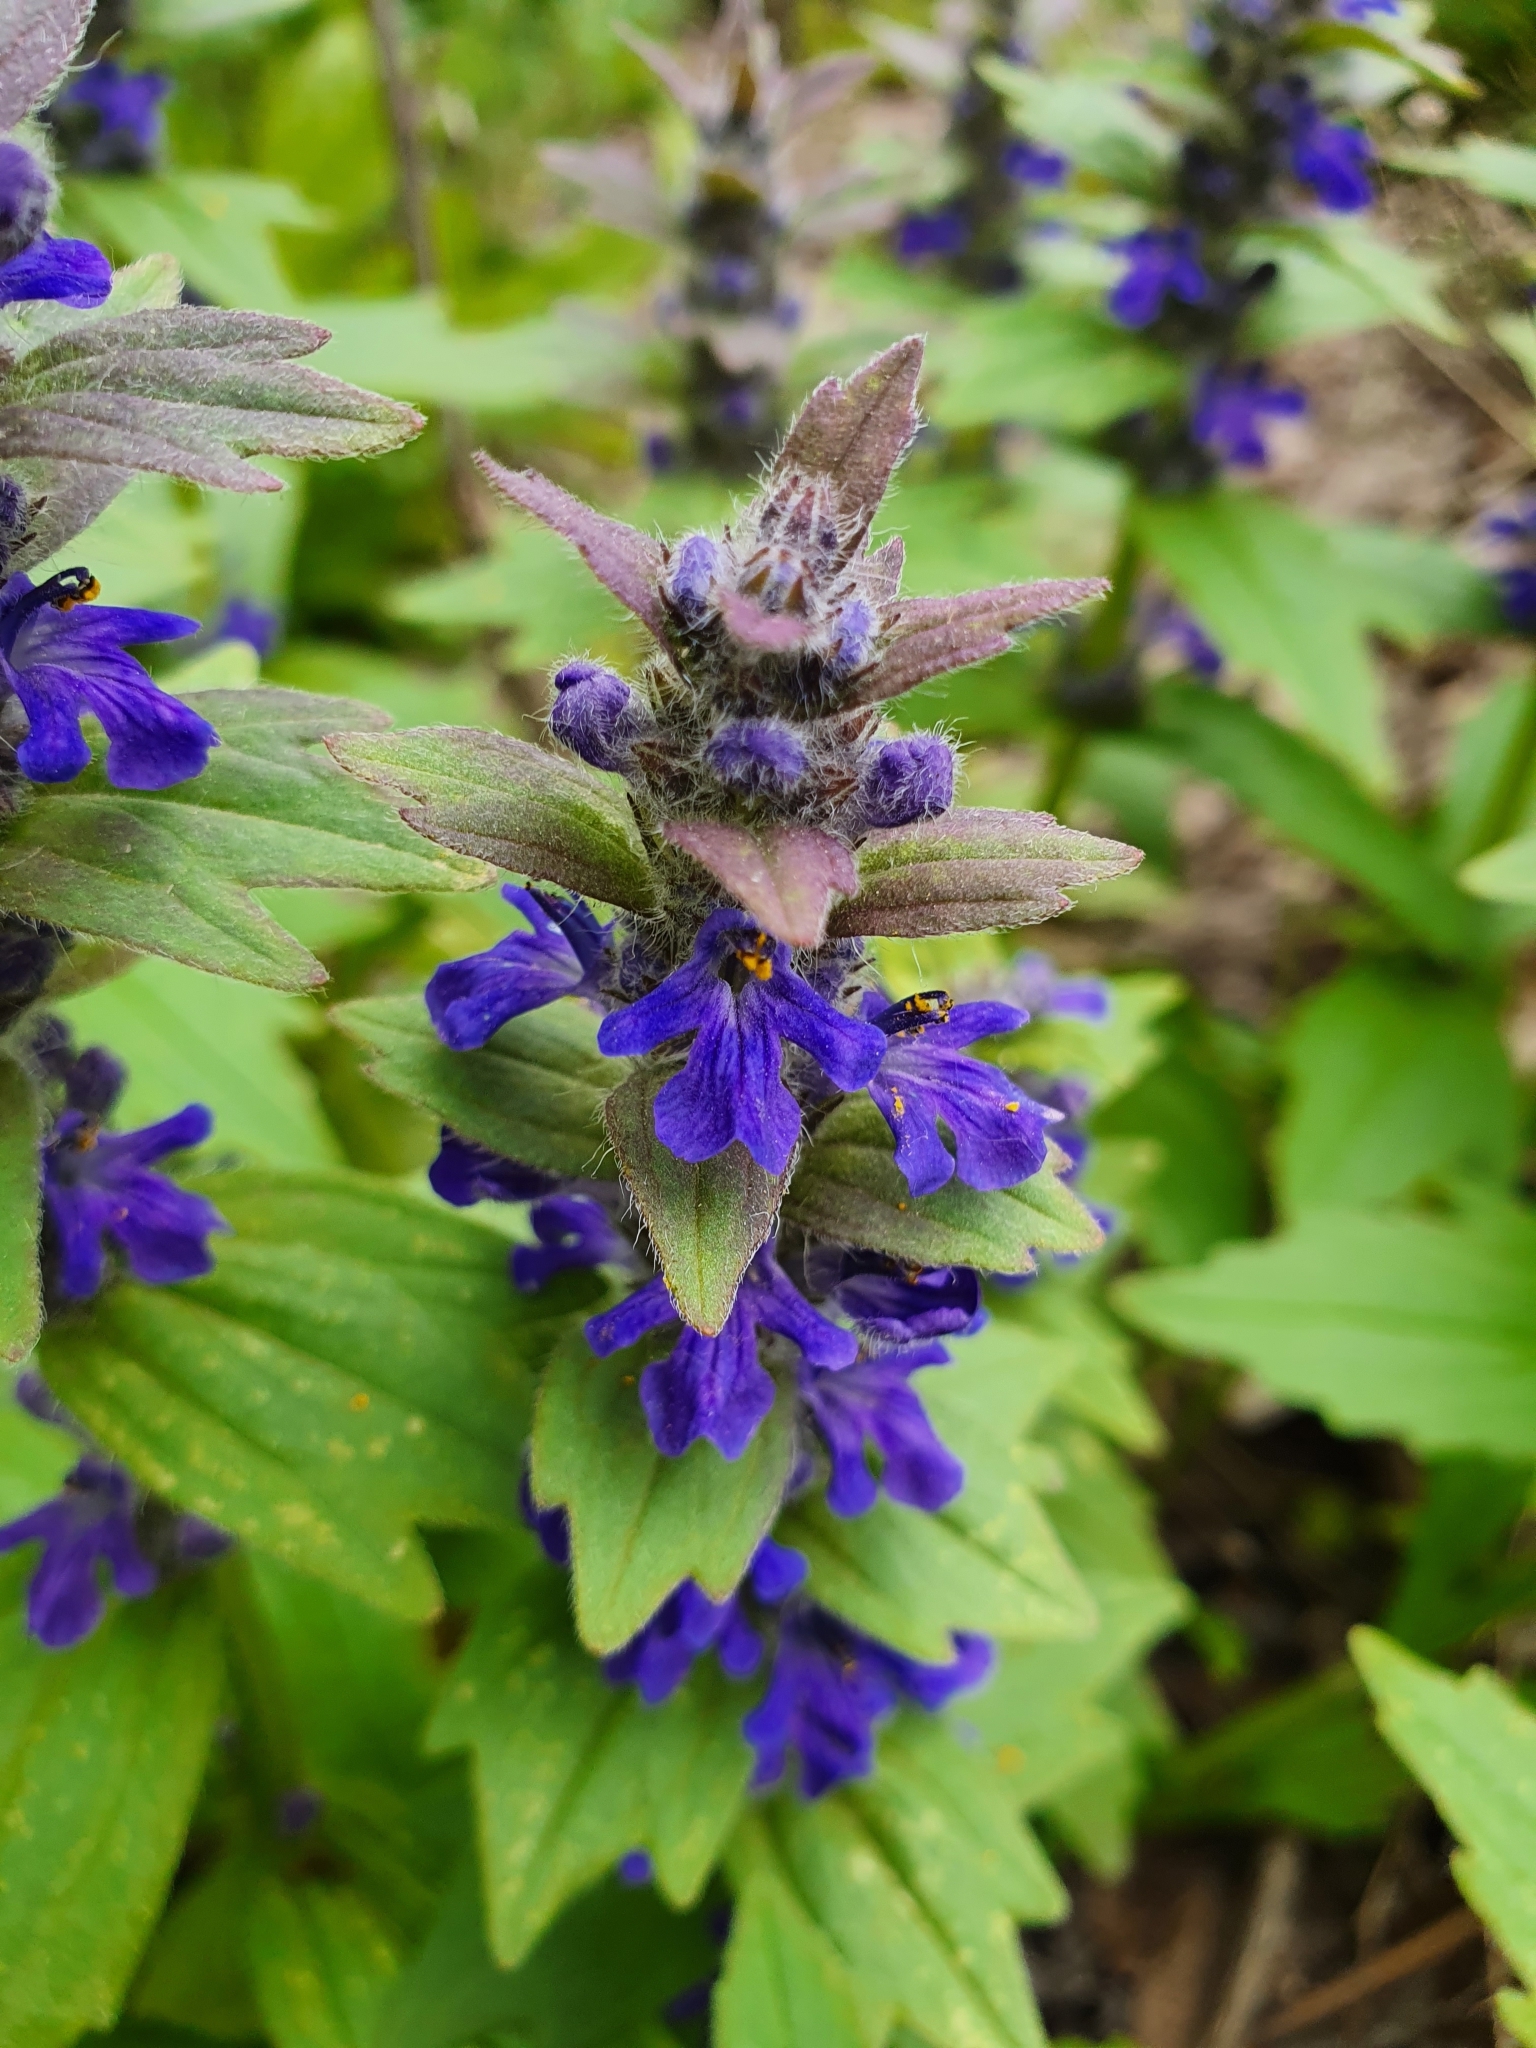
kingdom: Plantae
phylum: Tracheophyta
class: Magnoliopsida
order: Lamiales
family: Lamiaceae
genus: Ajuga
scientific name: Ajuga genevensis
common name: Blue bugle
